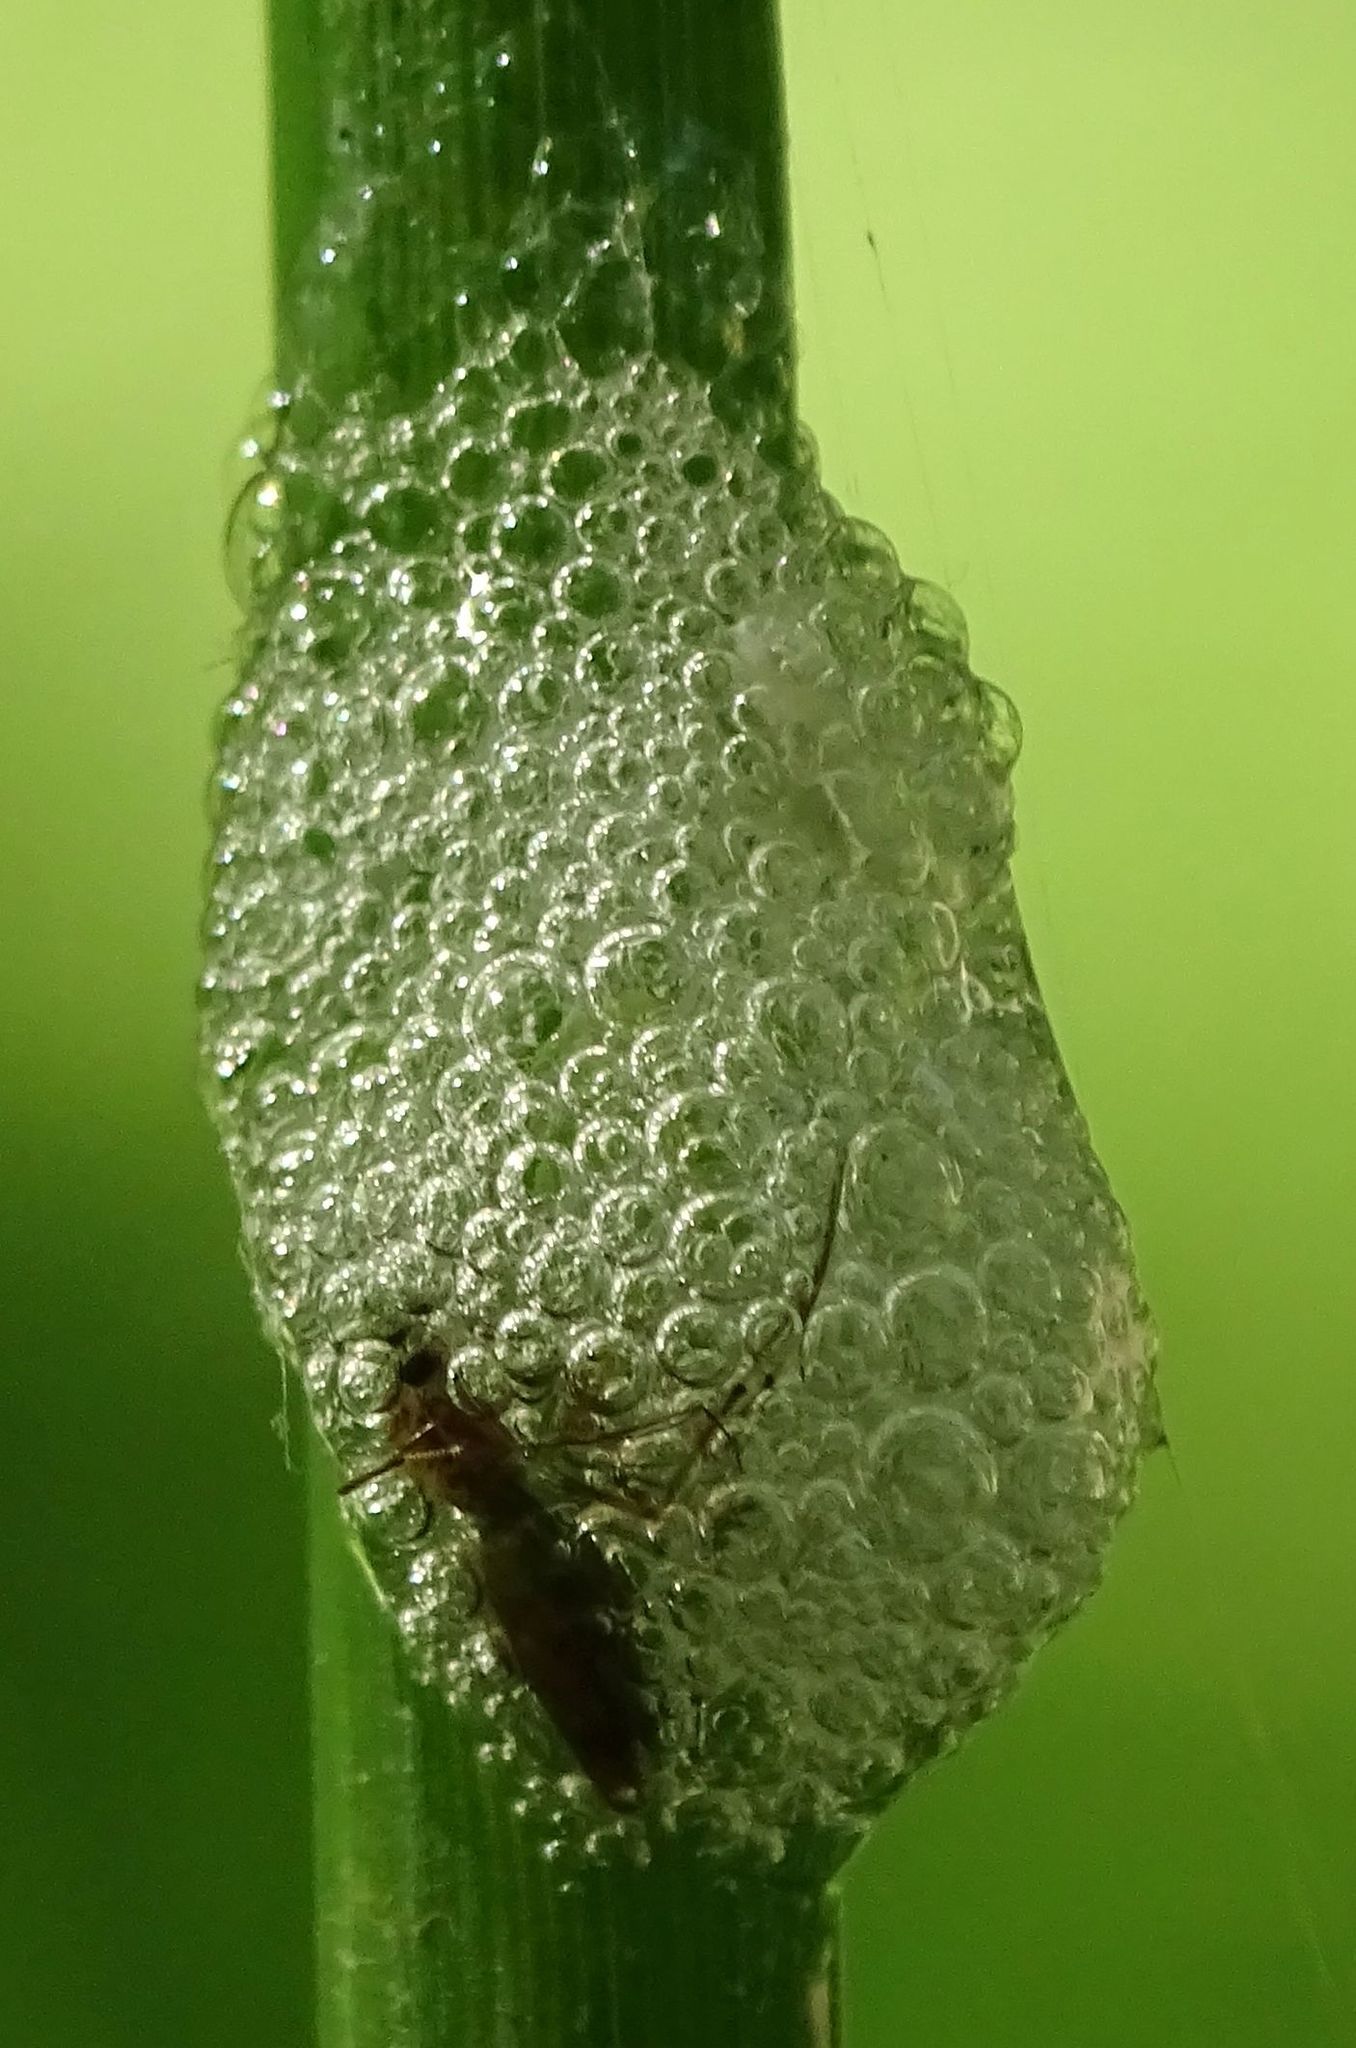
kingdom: Animalia
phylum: Arthropoda
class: Insecta
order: Hemiptera
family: Aphrophoridae
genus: Philaenus
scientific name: Philaenus spumarius
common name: Meadow spittlebug
